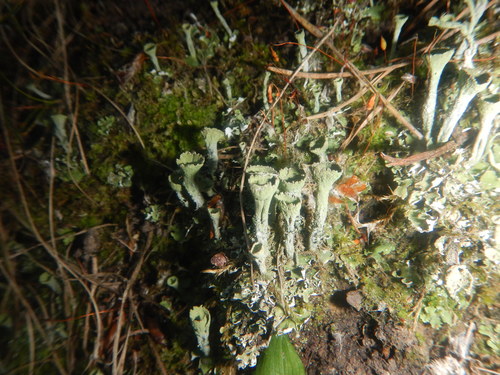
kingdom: Fungi
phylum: Ascomycota
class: Lecanoromycetes
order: Lecanorales
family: Cladoniaceae
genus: Cladonia
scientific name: Cladonia fimbriata
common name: Powdered trumpet lichen
